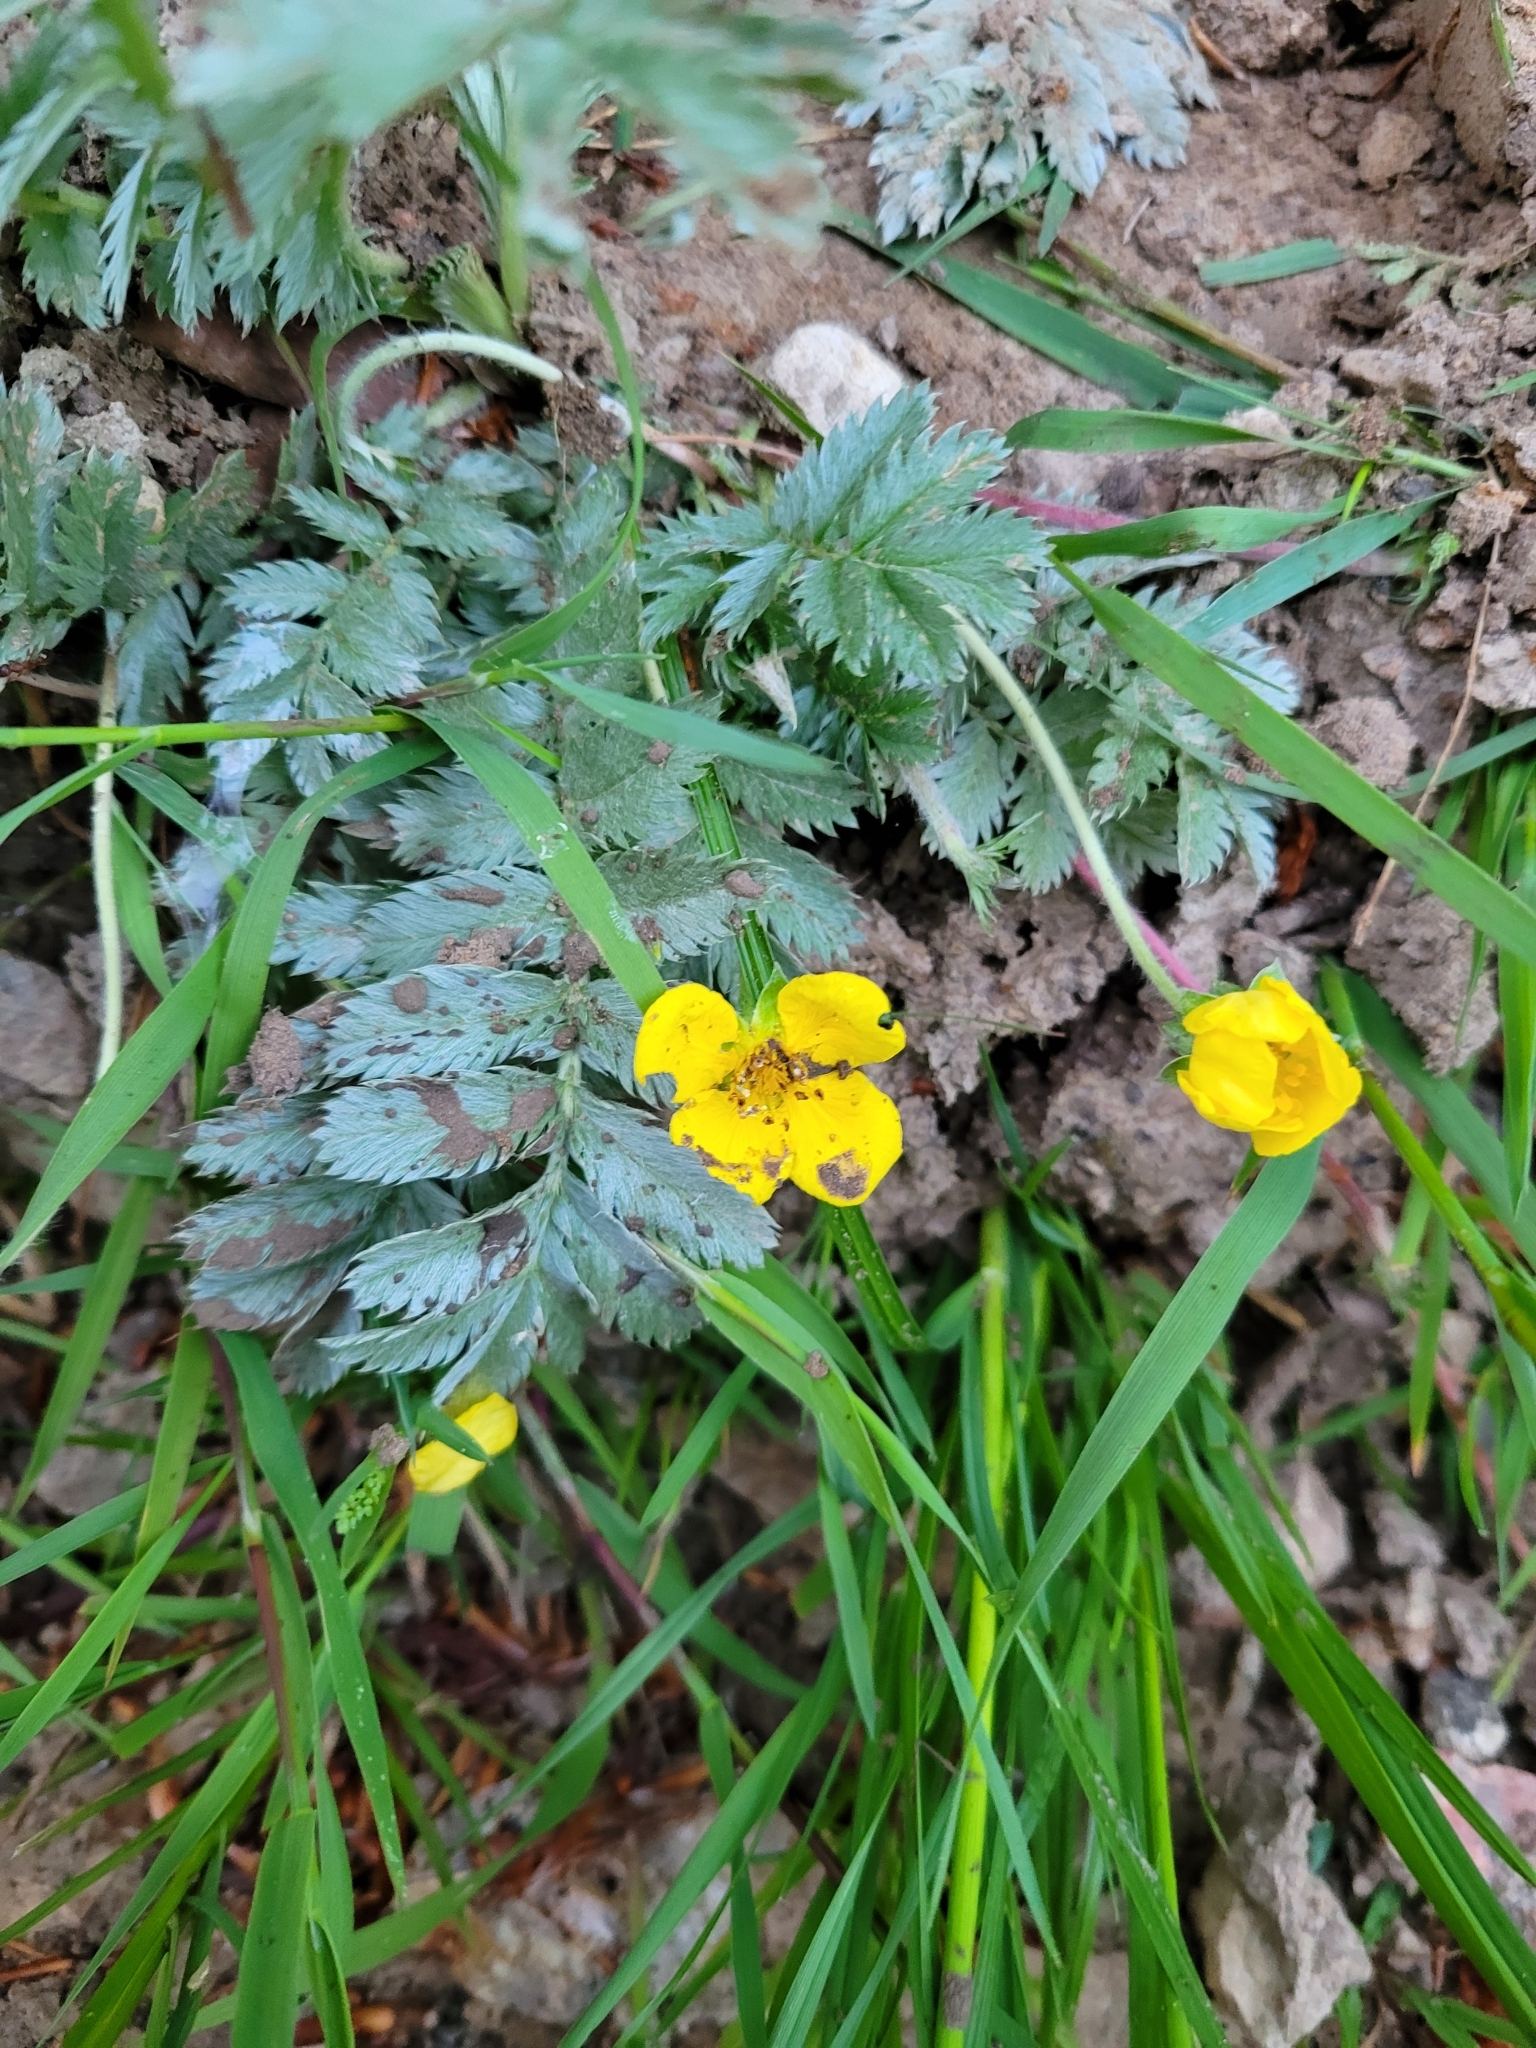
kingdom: Plantae
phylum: Tracheophyta
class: Magnoliopsida
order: Rosales
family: Rosaceae
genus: Argentina
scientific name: Argentina anserina
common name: Common silverweed
